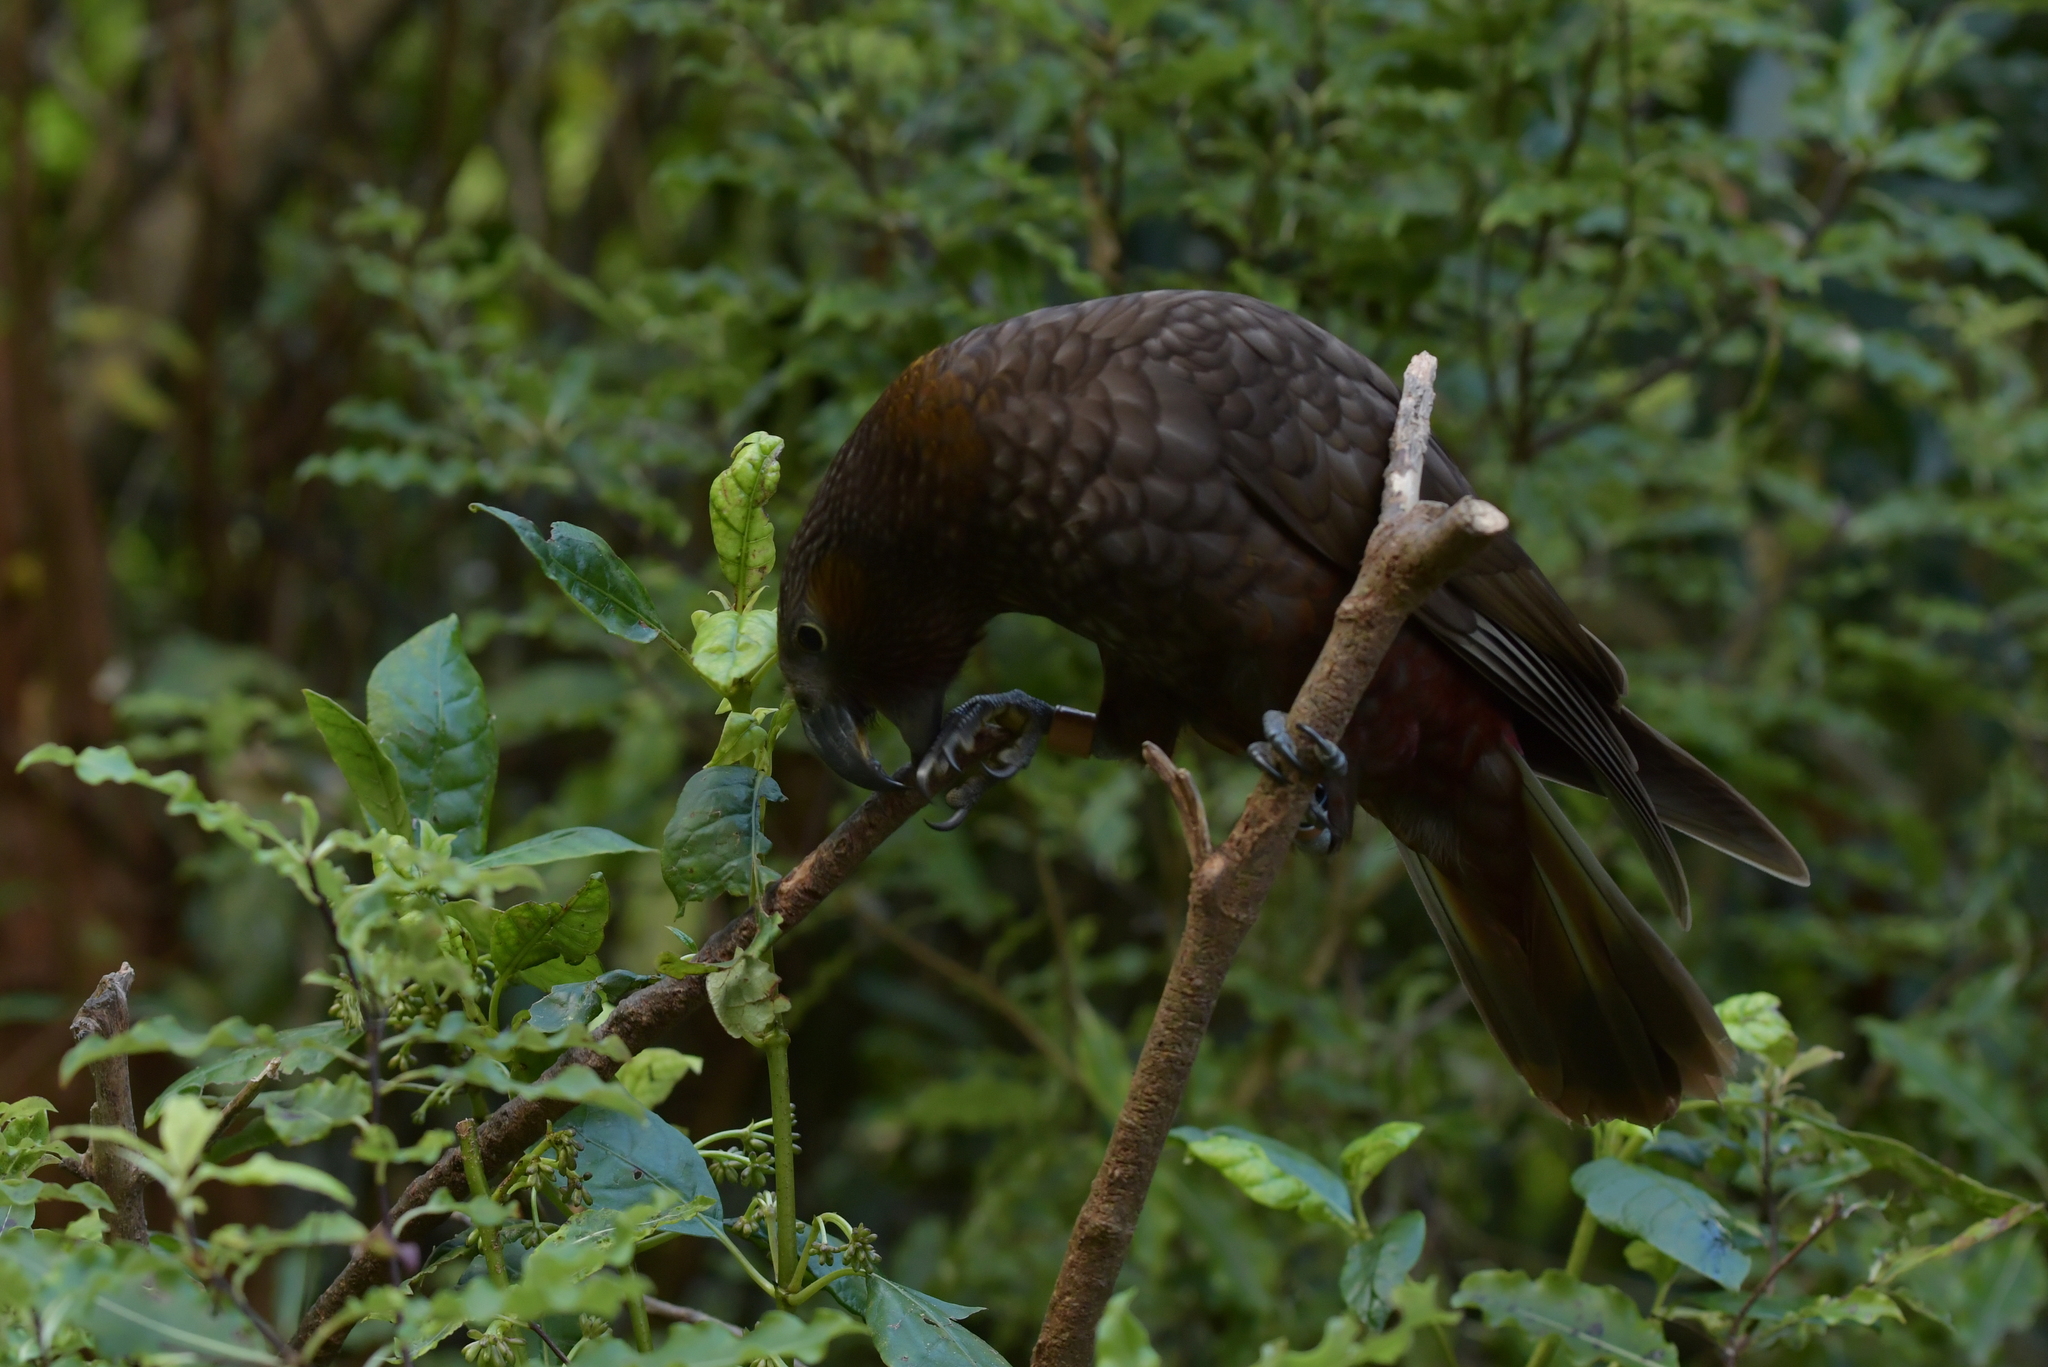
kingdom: Animalia
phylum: Chordata
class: Aves
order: Psittaciformes
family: Psittacidae
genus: Nestor
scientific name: Nestor meridionalis
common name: New zealand kaka
